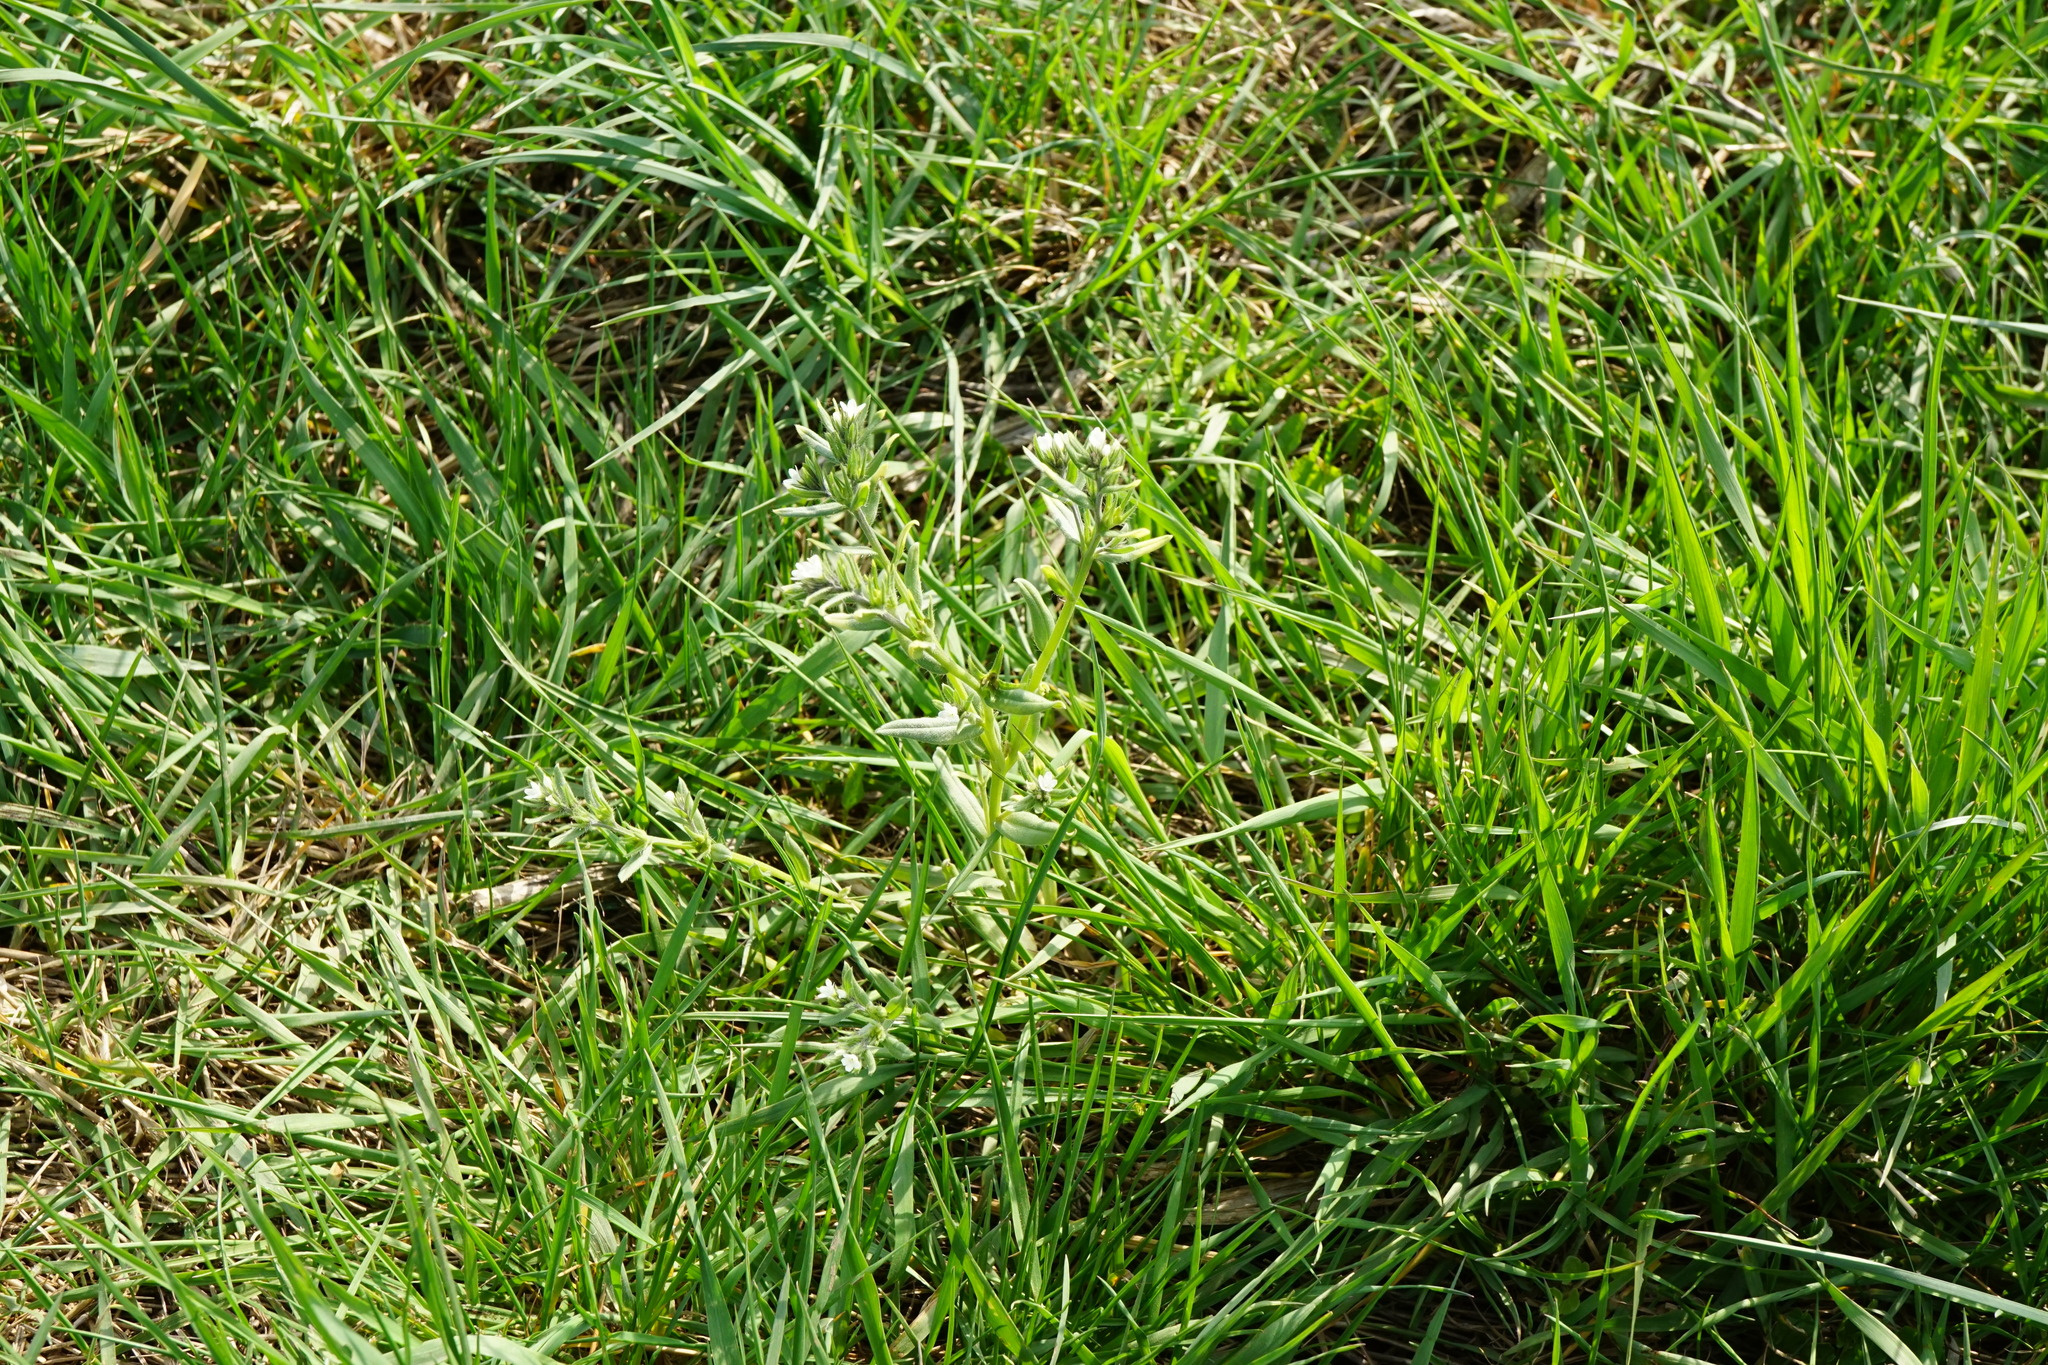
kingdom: Plantae
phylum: Tracheophyta
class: Magnoliopsida
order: Boraginales
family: Boraginaceae
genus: Buglossoides
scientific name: Buglossoides incrassata
